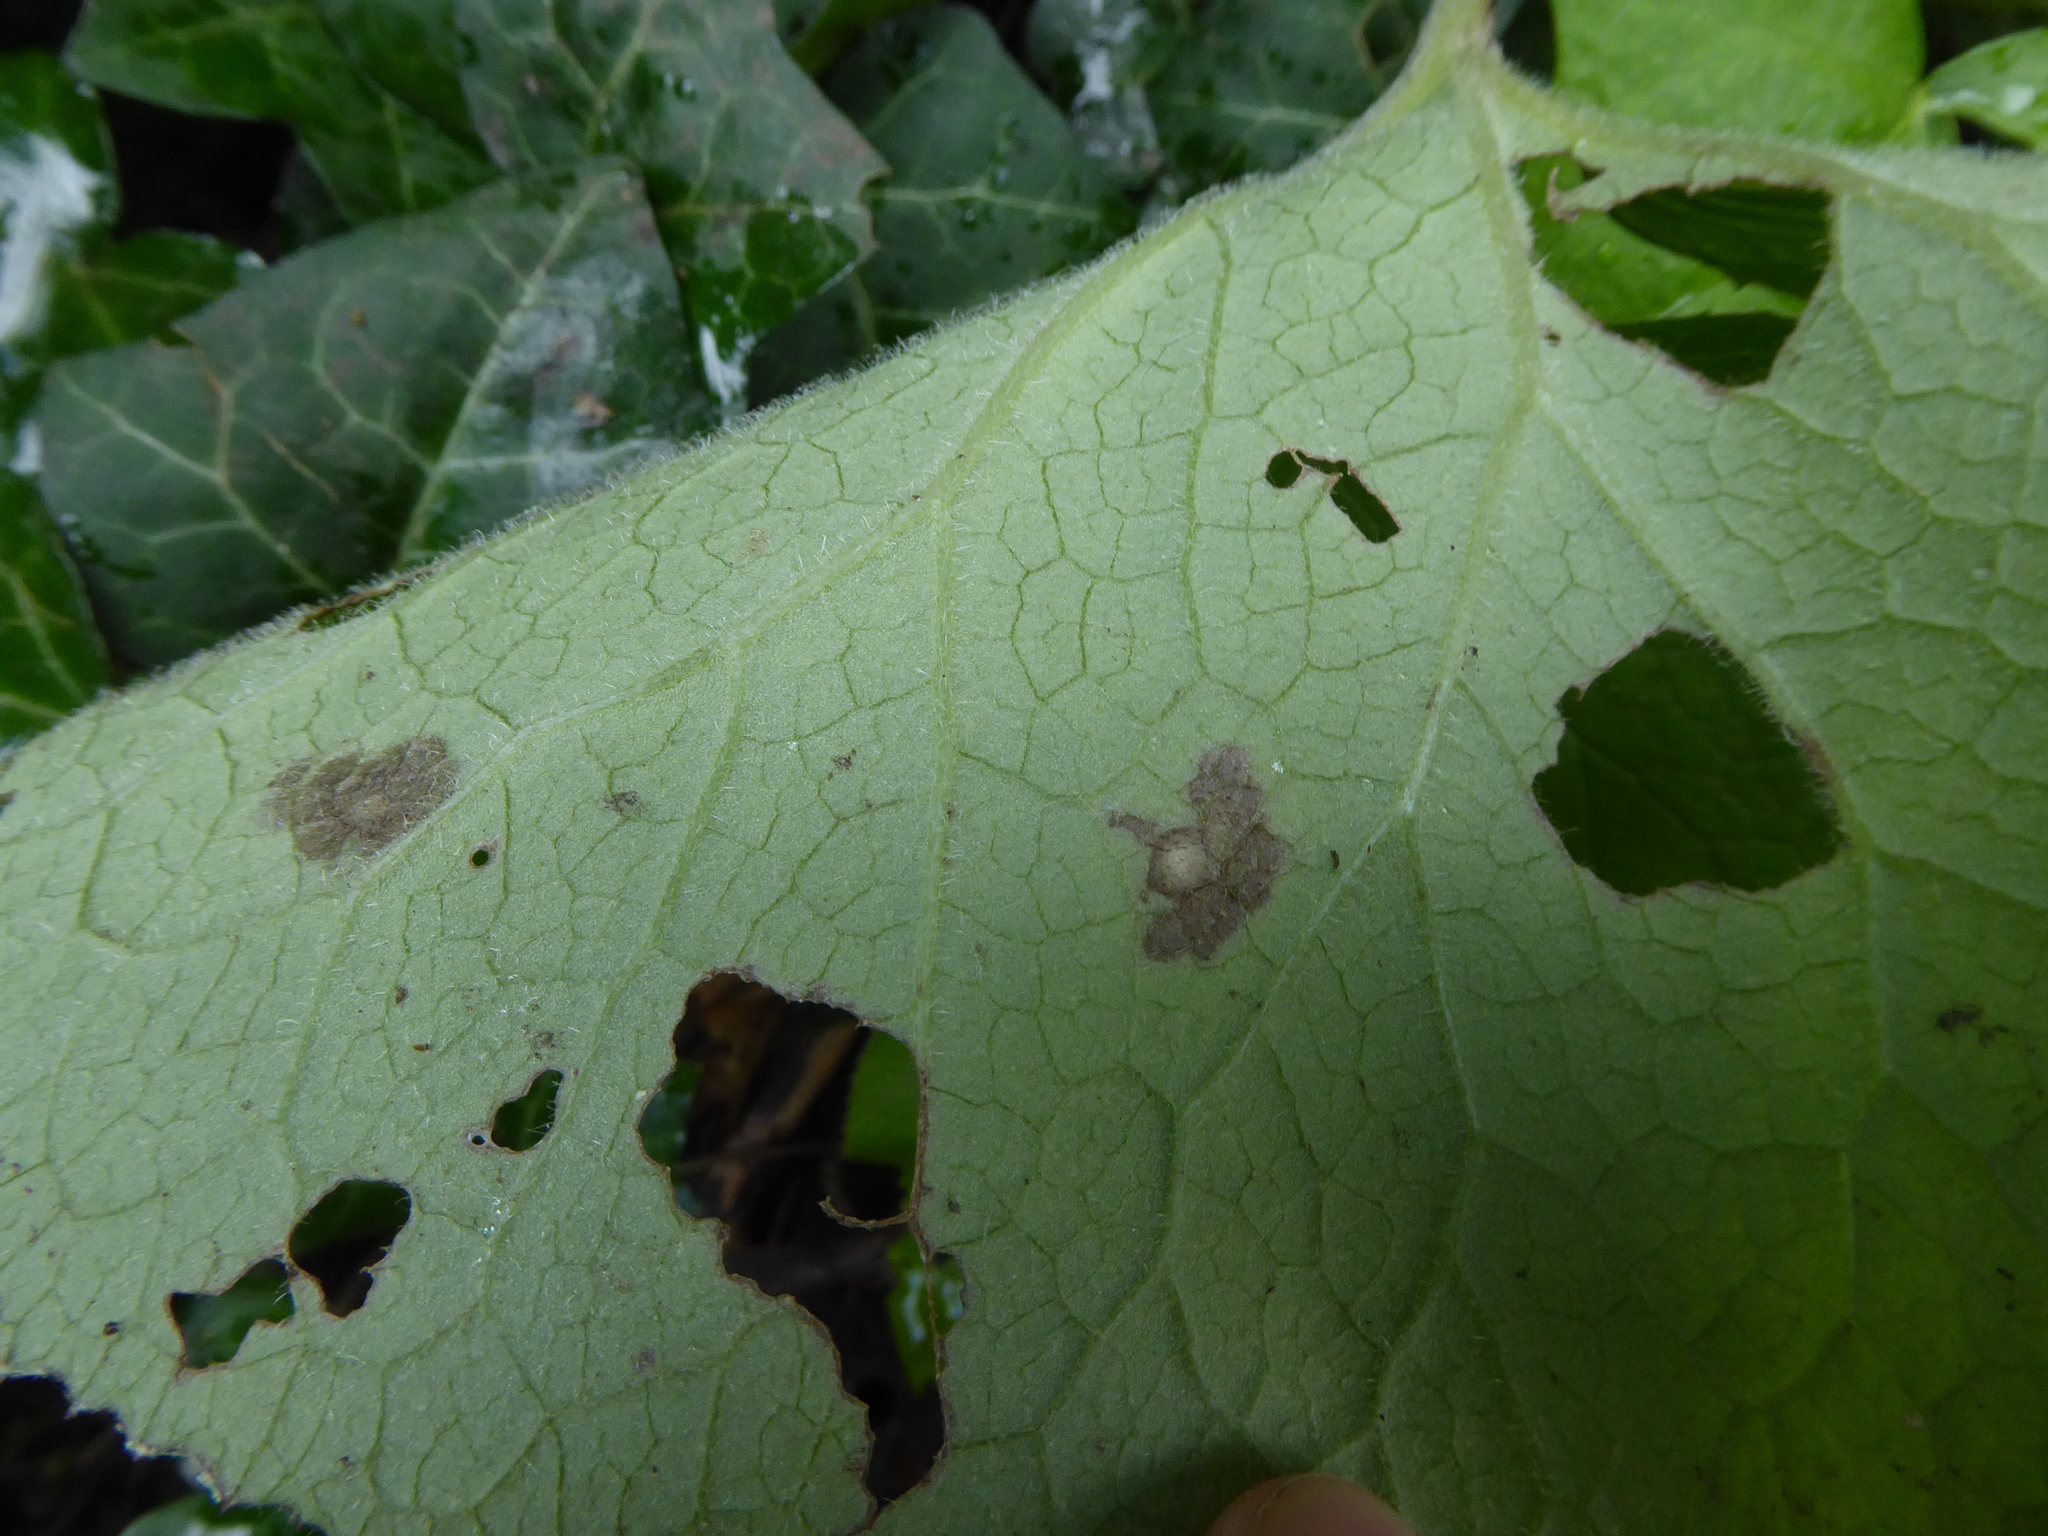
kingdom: Plantae
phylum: Tracheophyta
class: Magnoliopsida
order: Asterales
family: Asteraceae
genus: Petasites
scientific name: Petasites pyrenaicus
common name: Winter heliotrope
